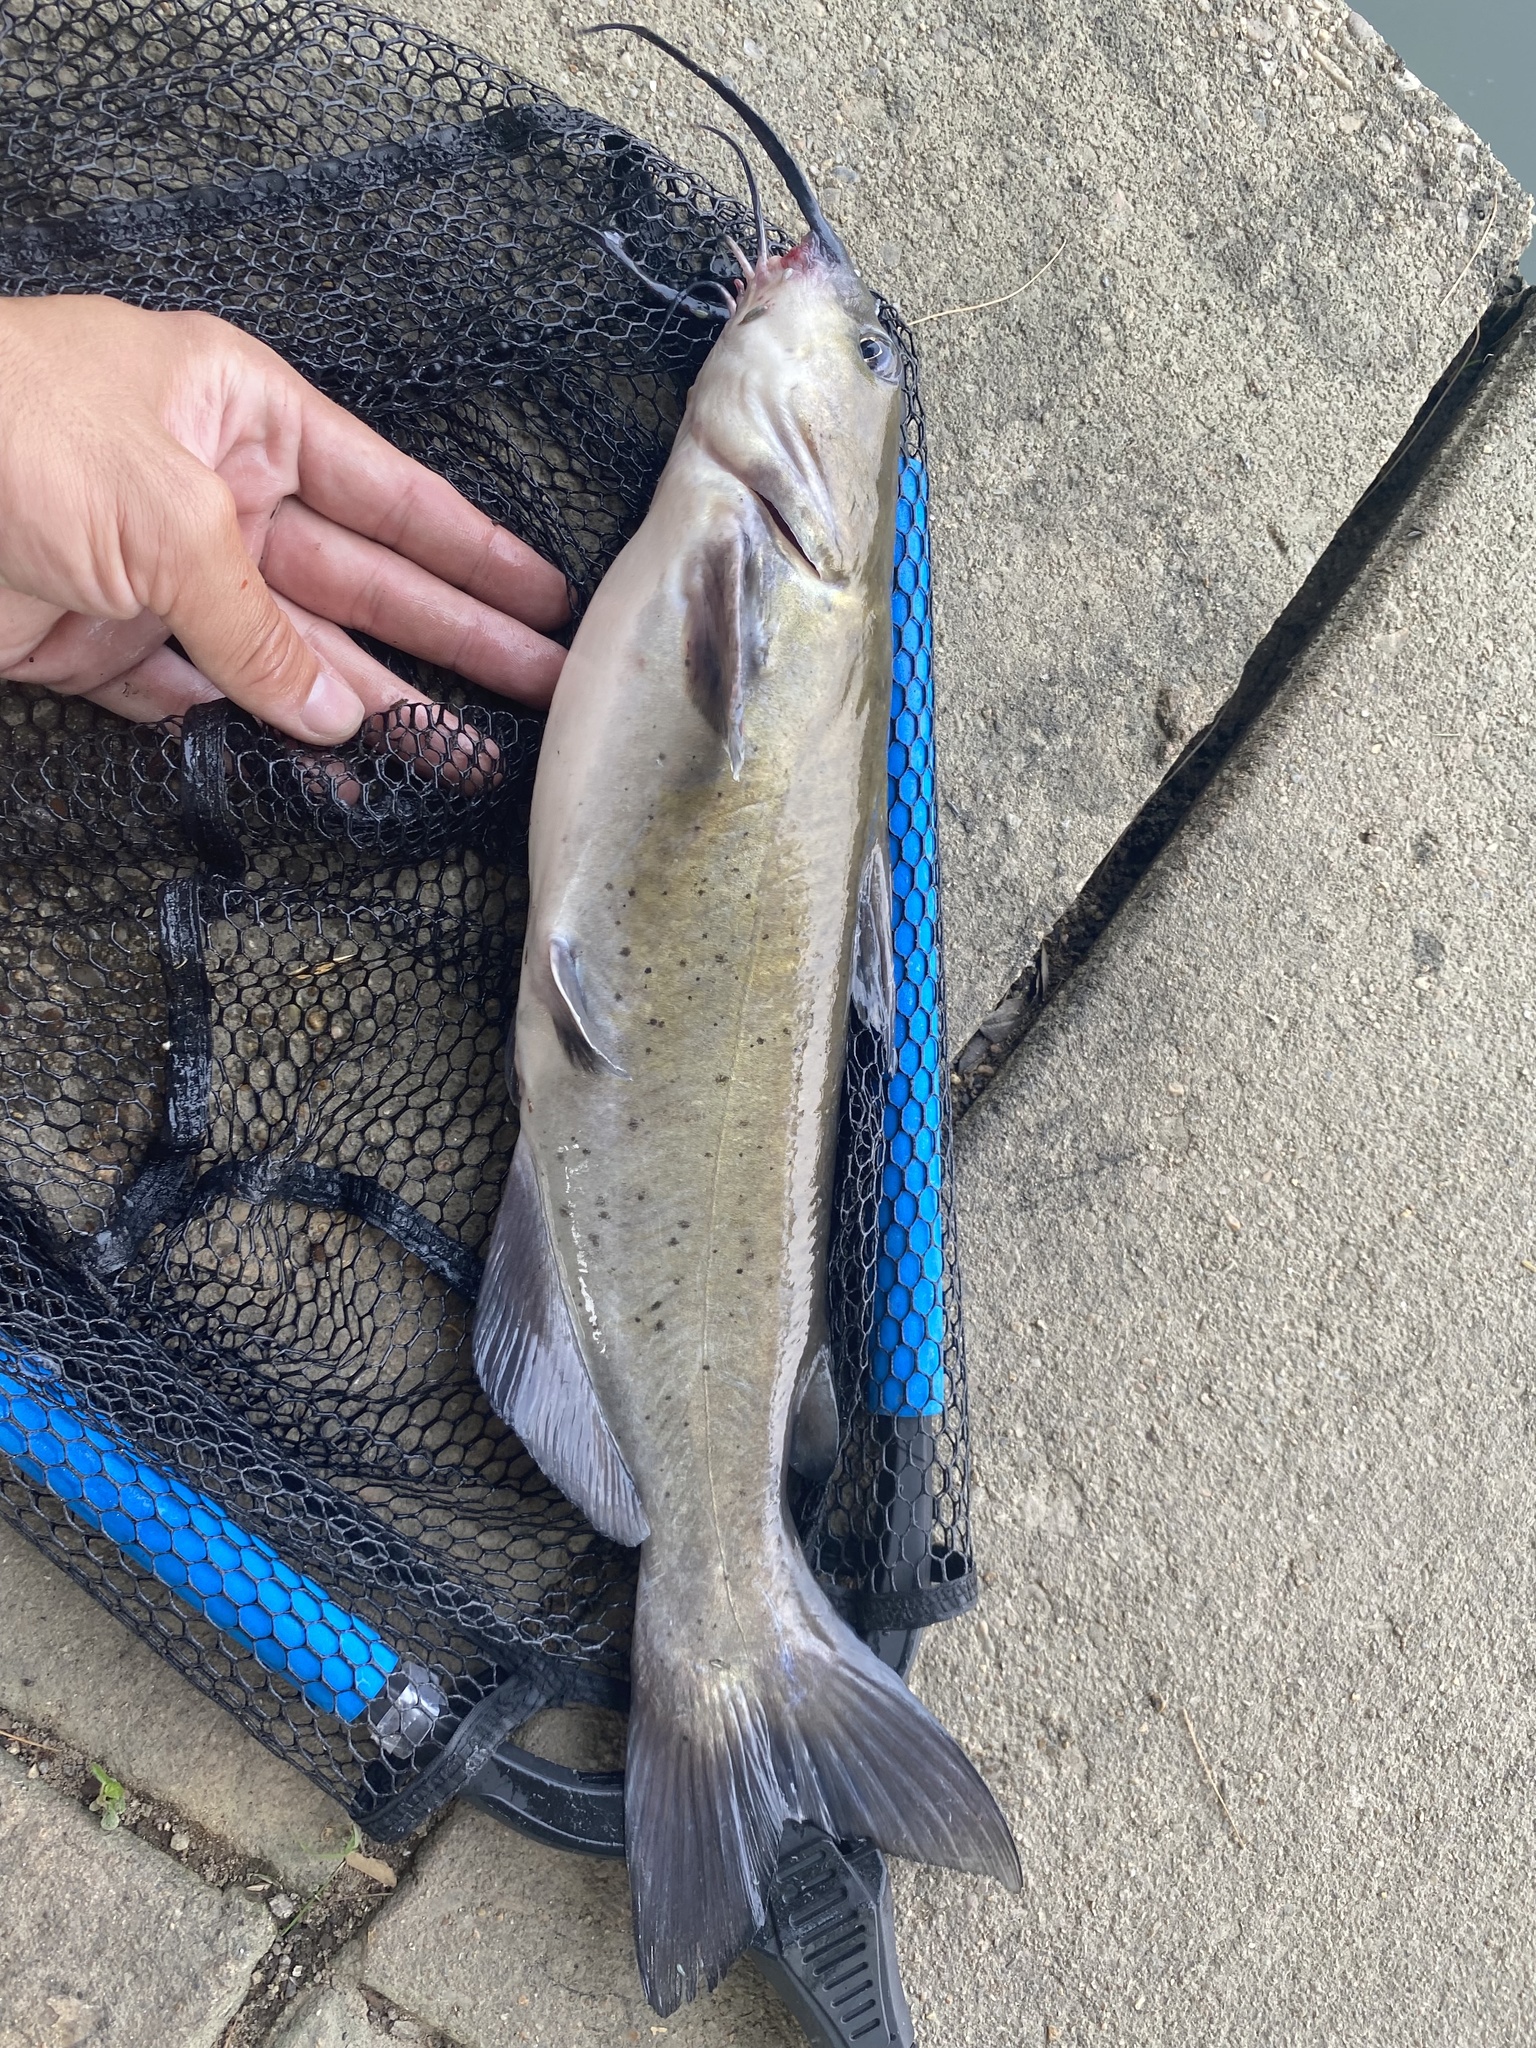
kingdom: Animalia
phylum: Chordata
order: Siluriformes
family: Ictaluridae
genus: Ictalurus
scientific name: Ictalurus punctatus
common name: Channel catfish
